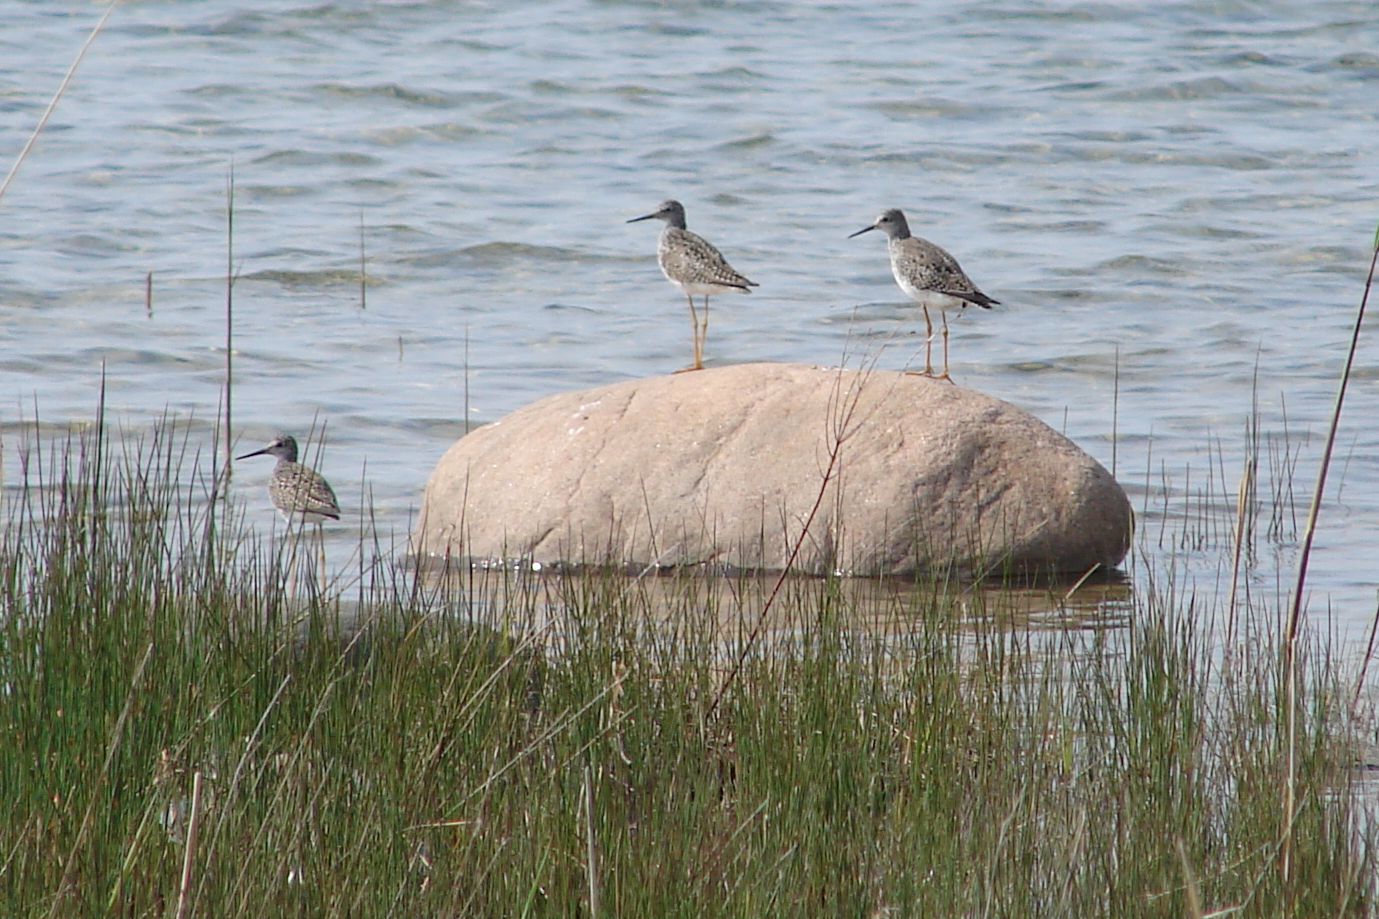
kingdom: Animalia
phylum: Chordata
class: Aves
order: Charadriiformes
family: Scolopacidae
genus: Tringa
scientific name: Tringa melanoleuca
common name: Greater yellowlegs
